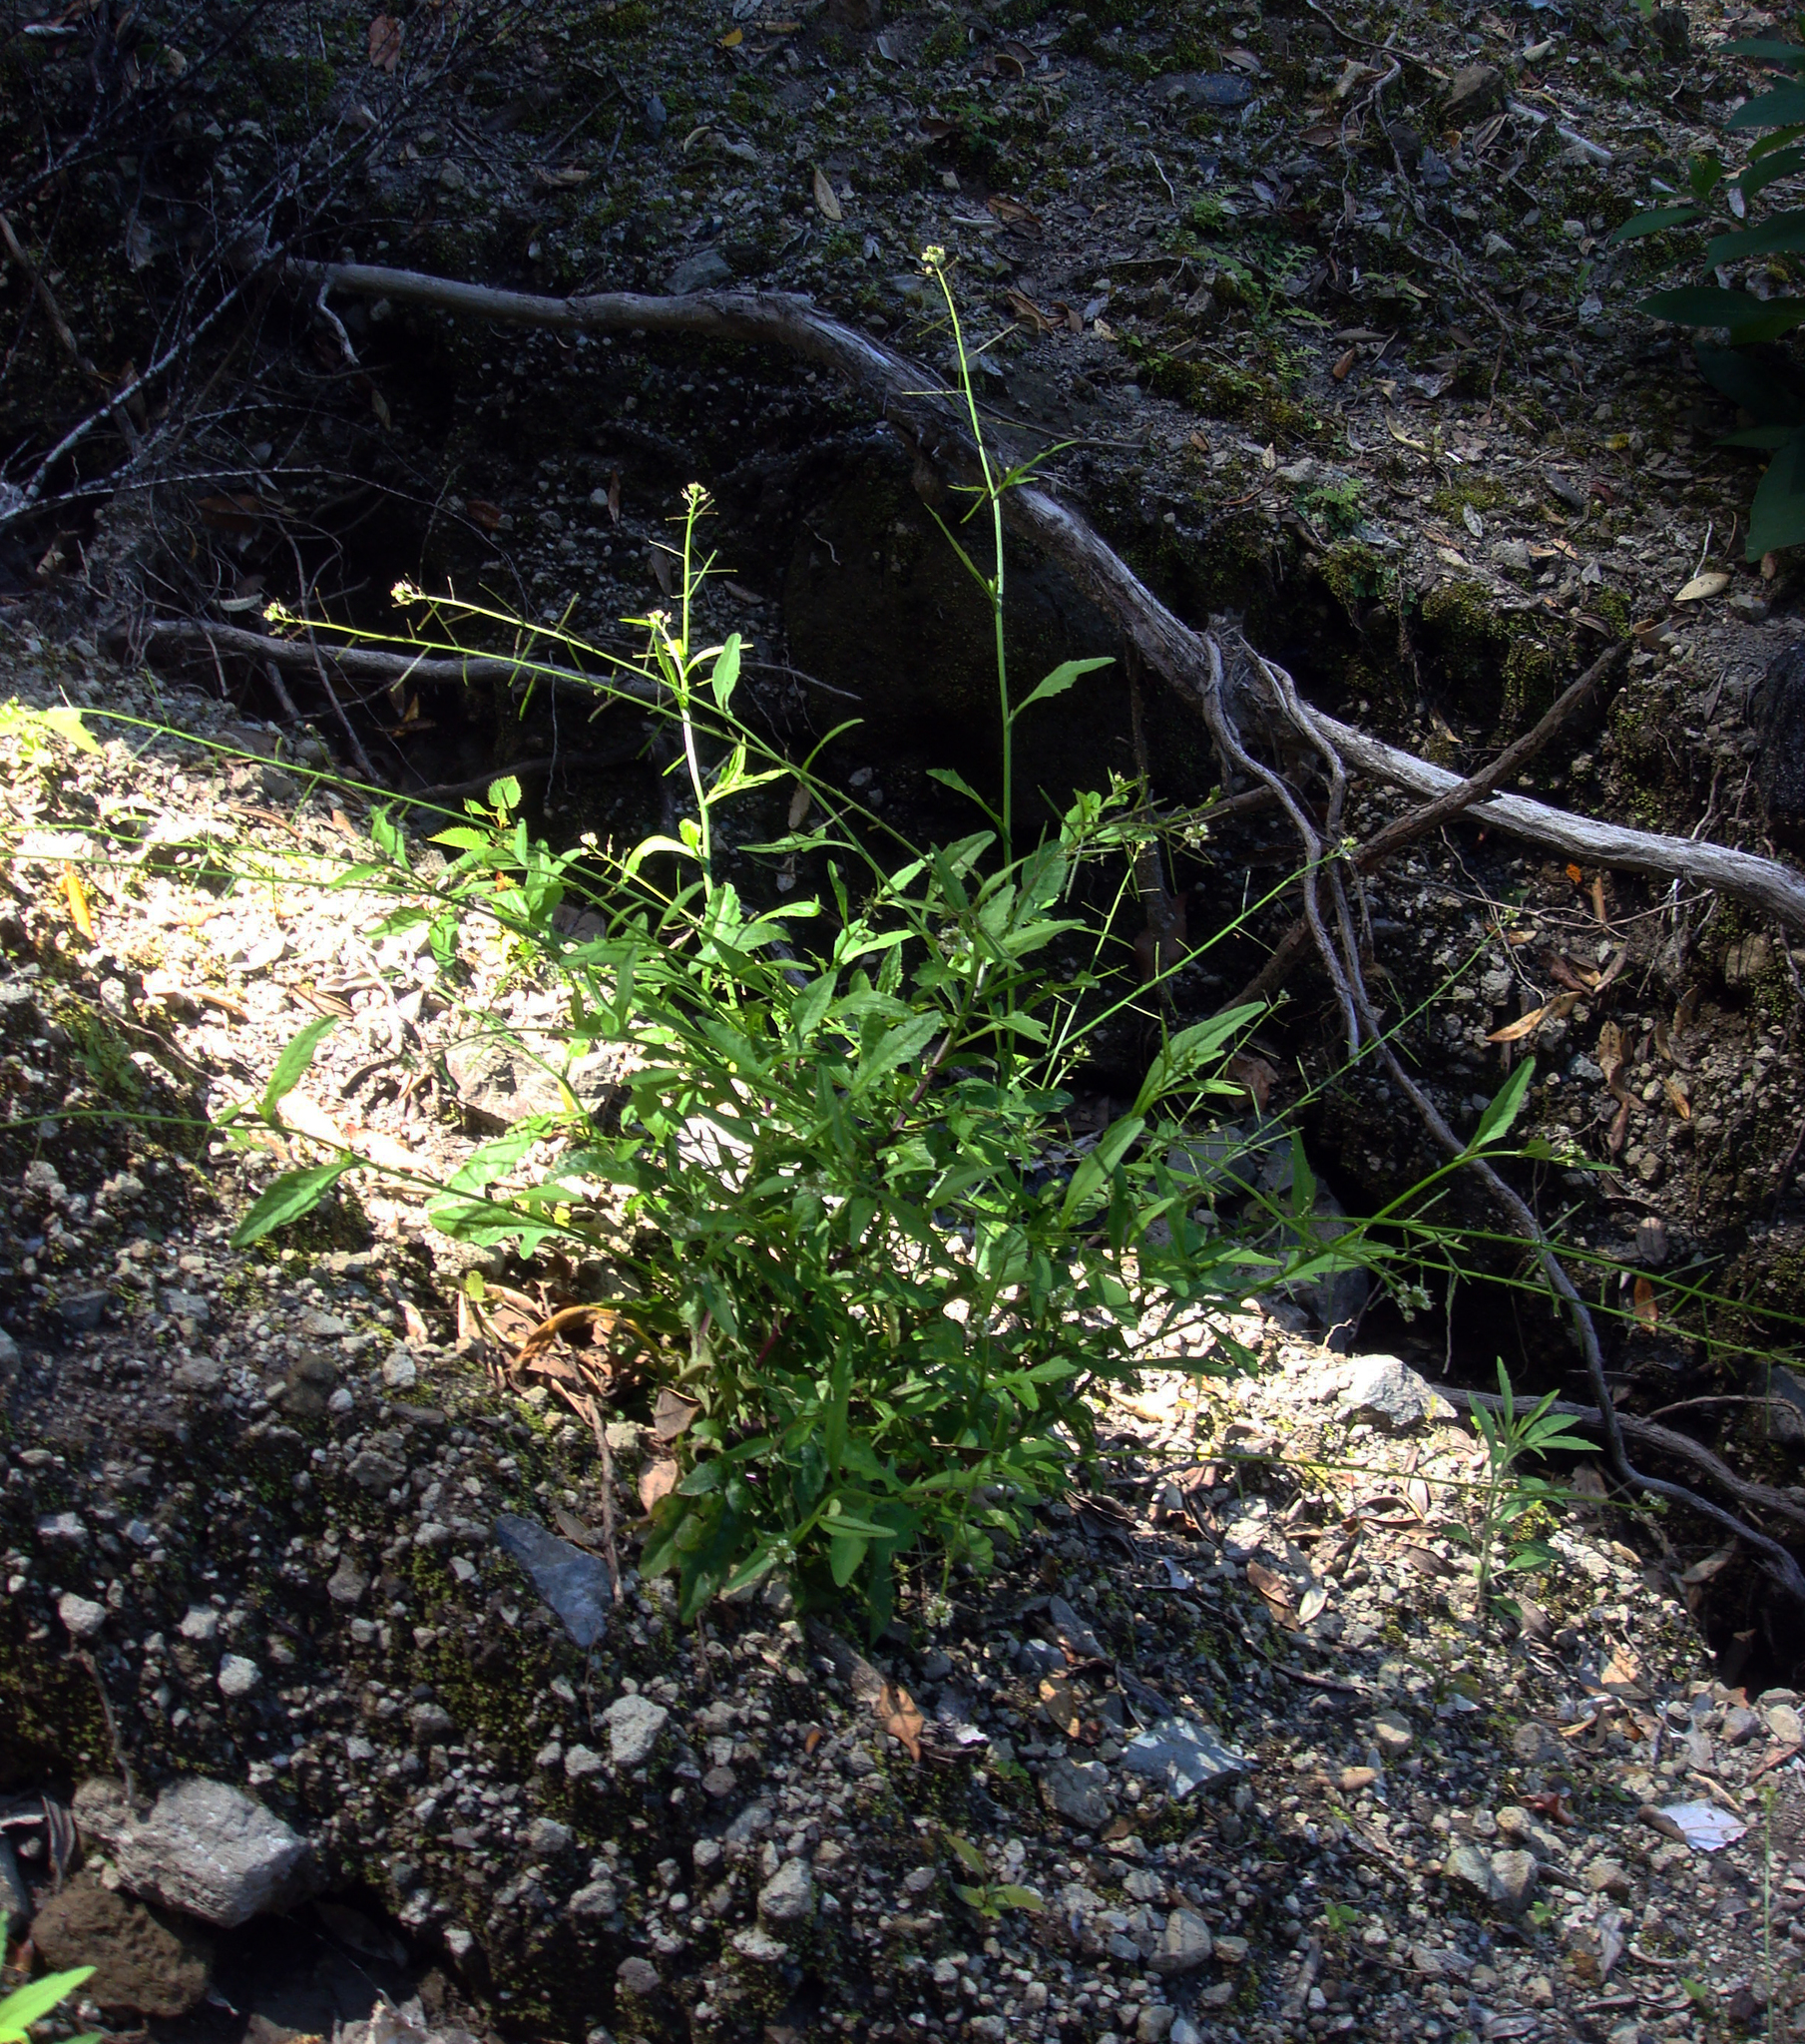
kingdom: Plantae
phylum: Tracheophyta
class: Magnoliopsida
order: Brassicales
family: Brassicaceae
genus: Rorippa
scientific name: Rorippa divaricata
